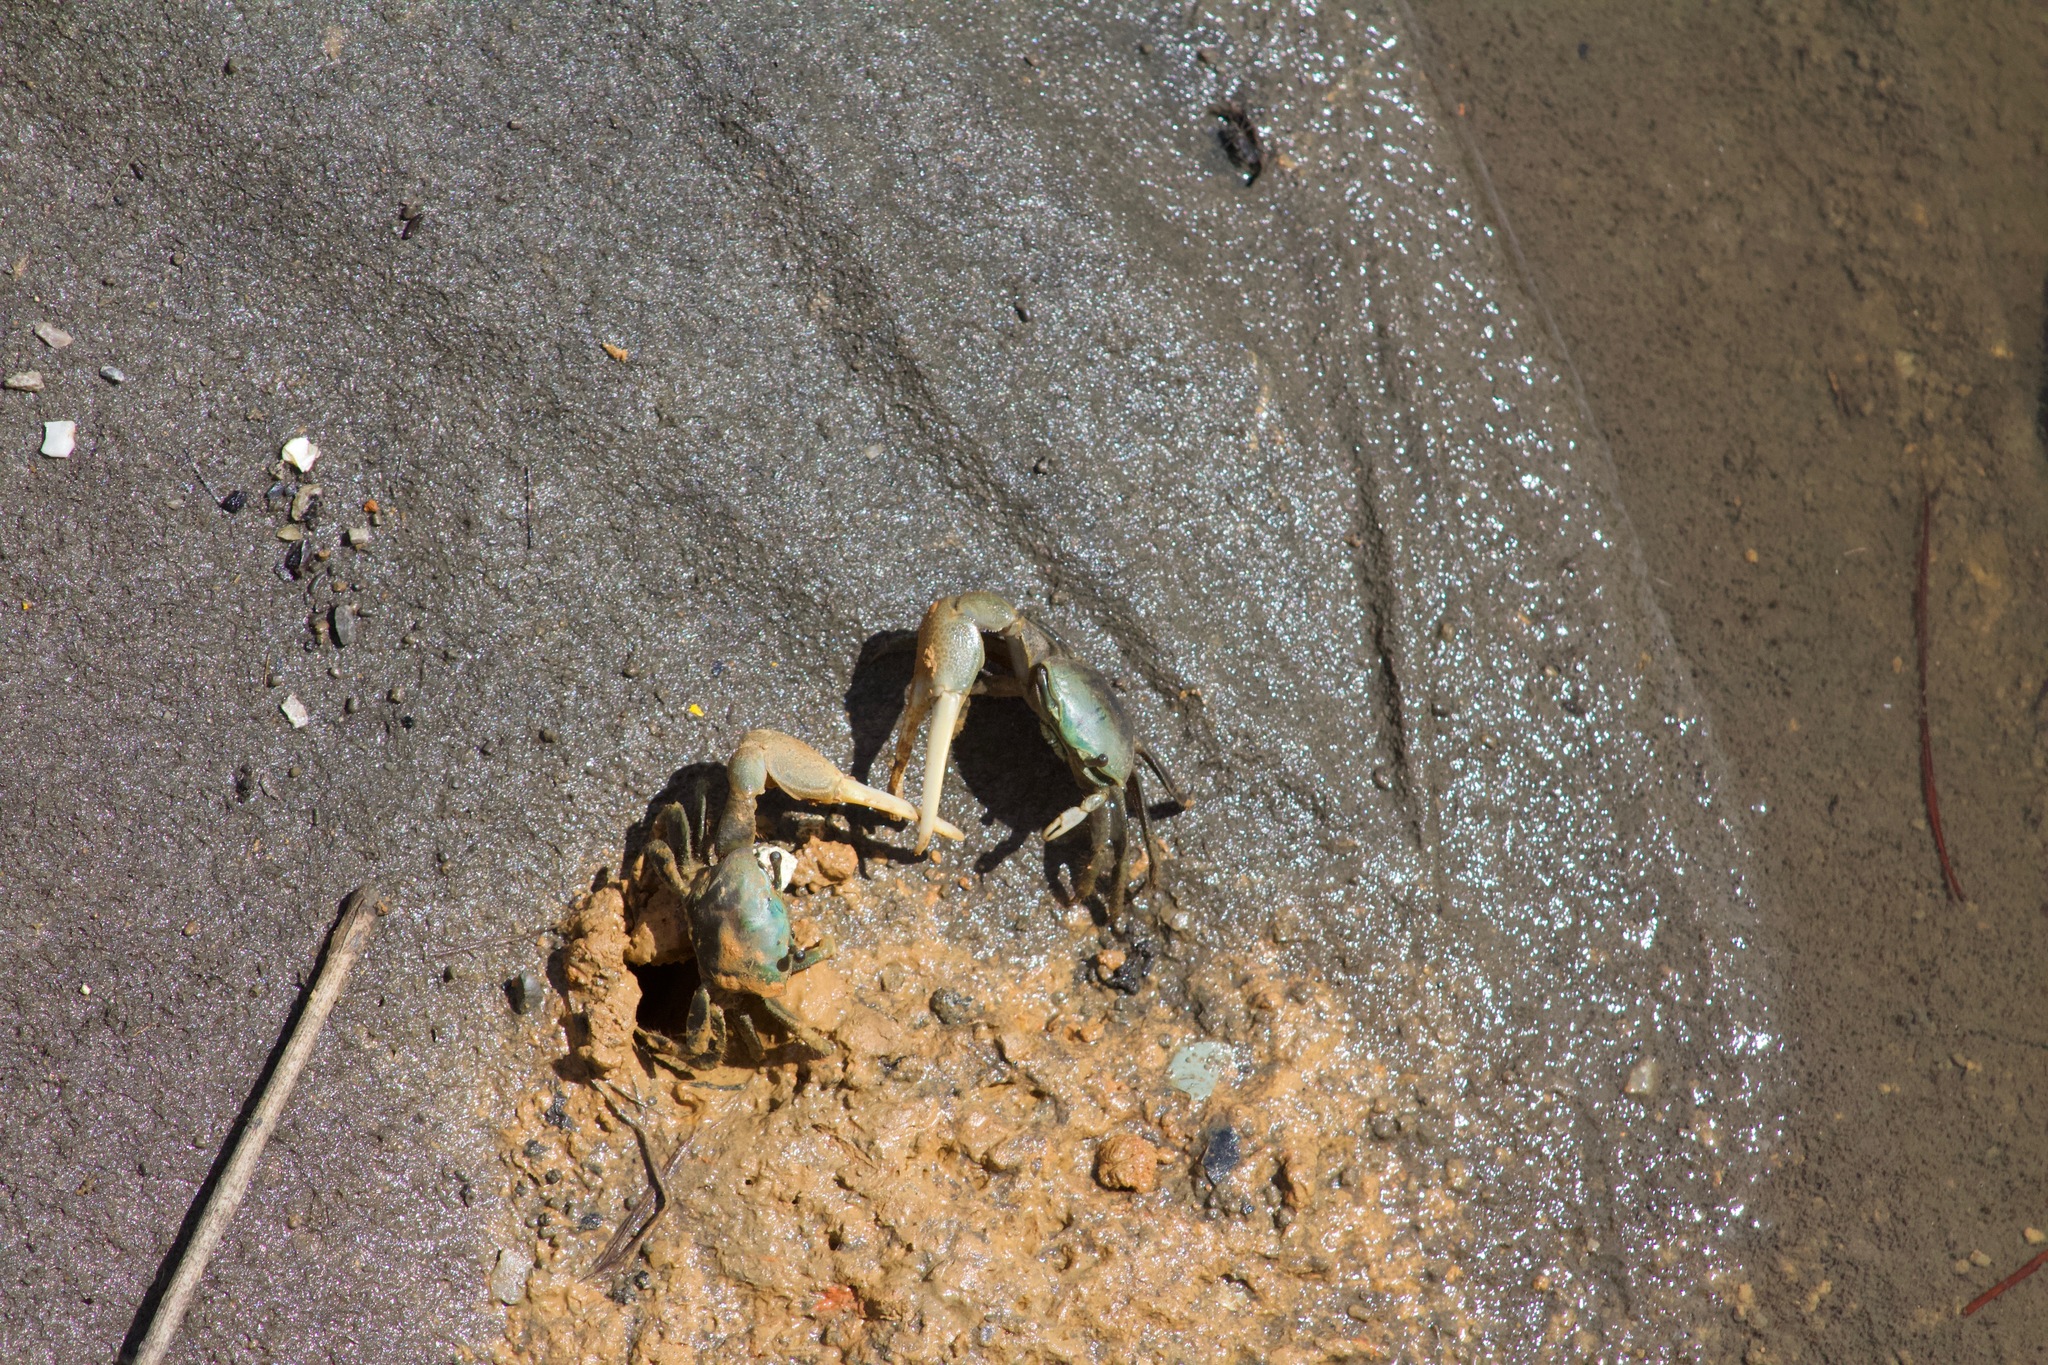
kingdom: Animalia
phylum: Arthropoda
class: Malacostraca
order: Decapoda
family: Ocypodidae
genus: Minuca
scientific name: Minuca longisignalis
